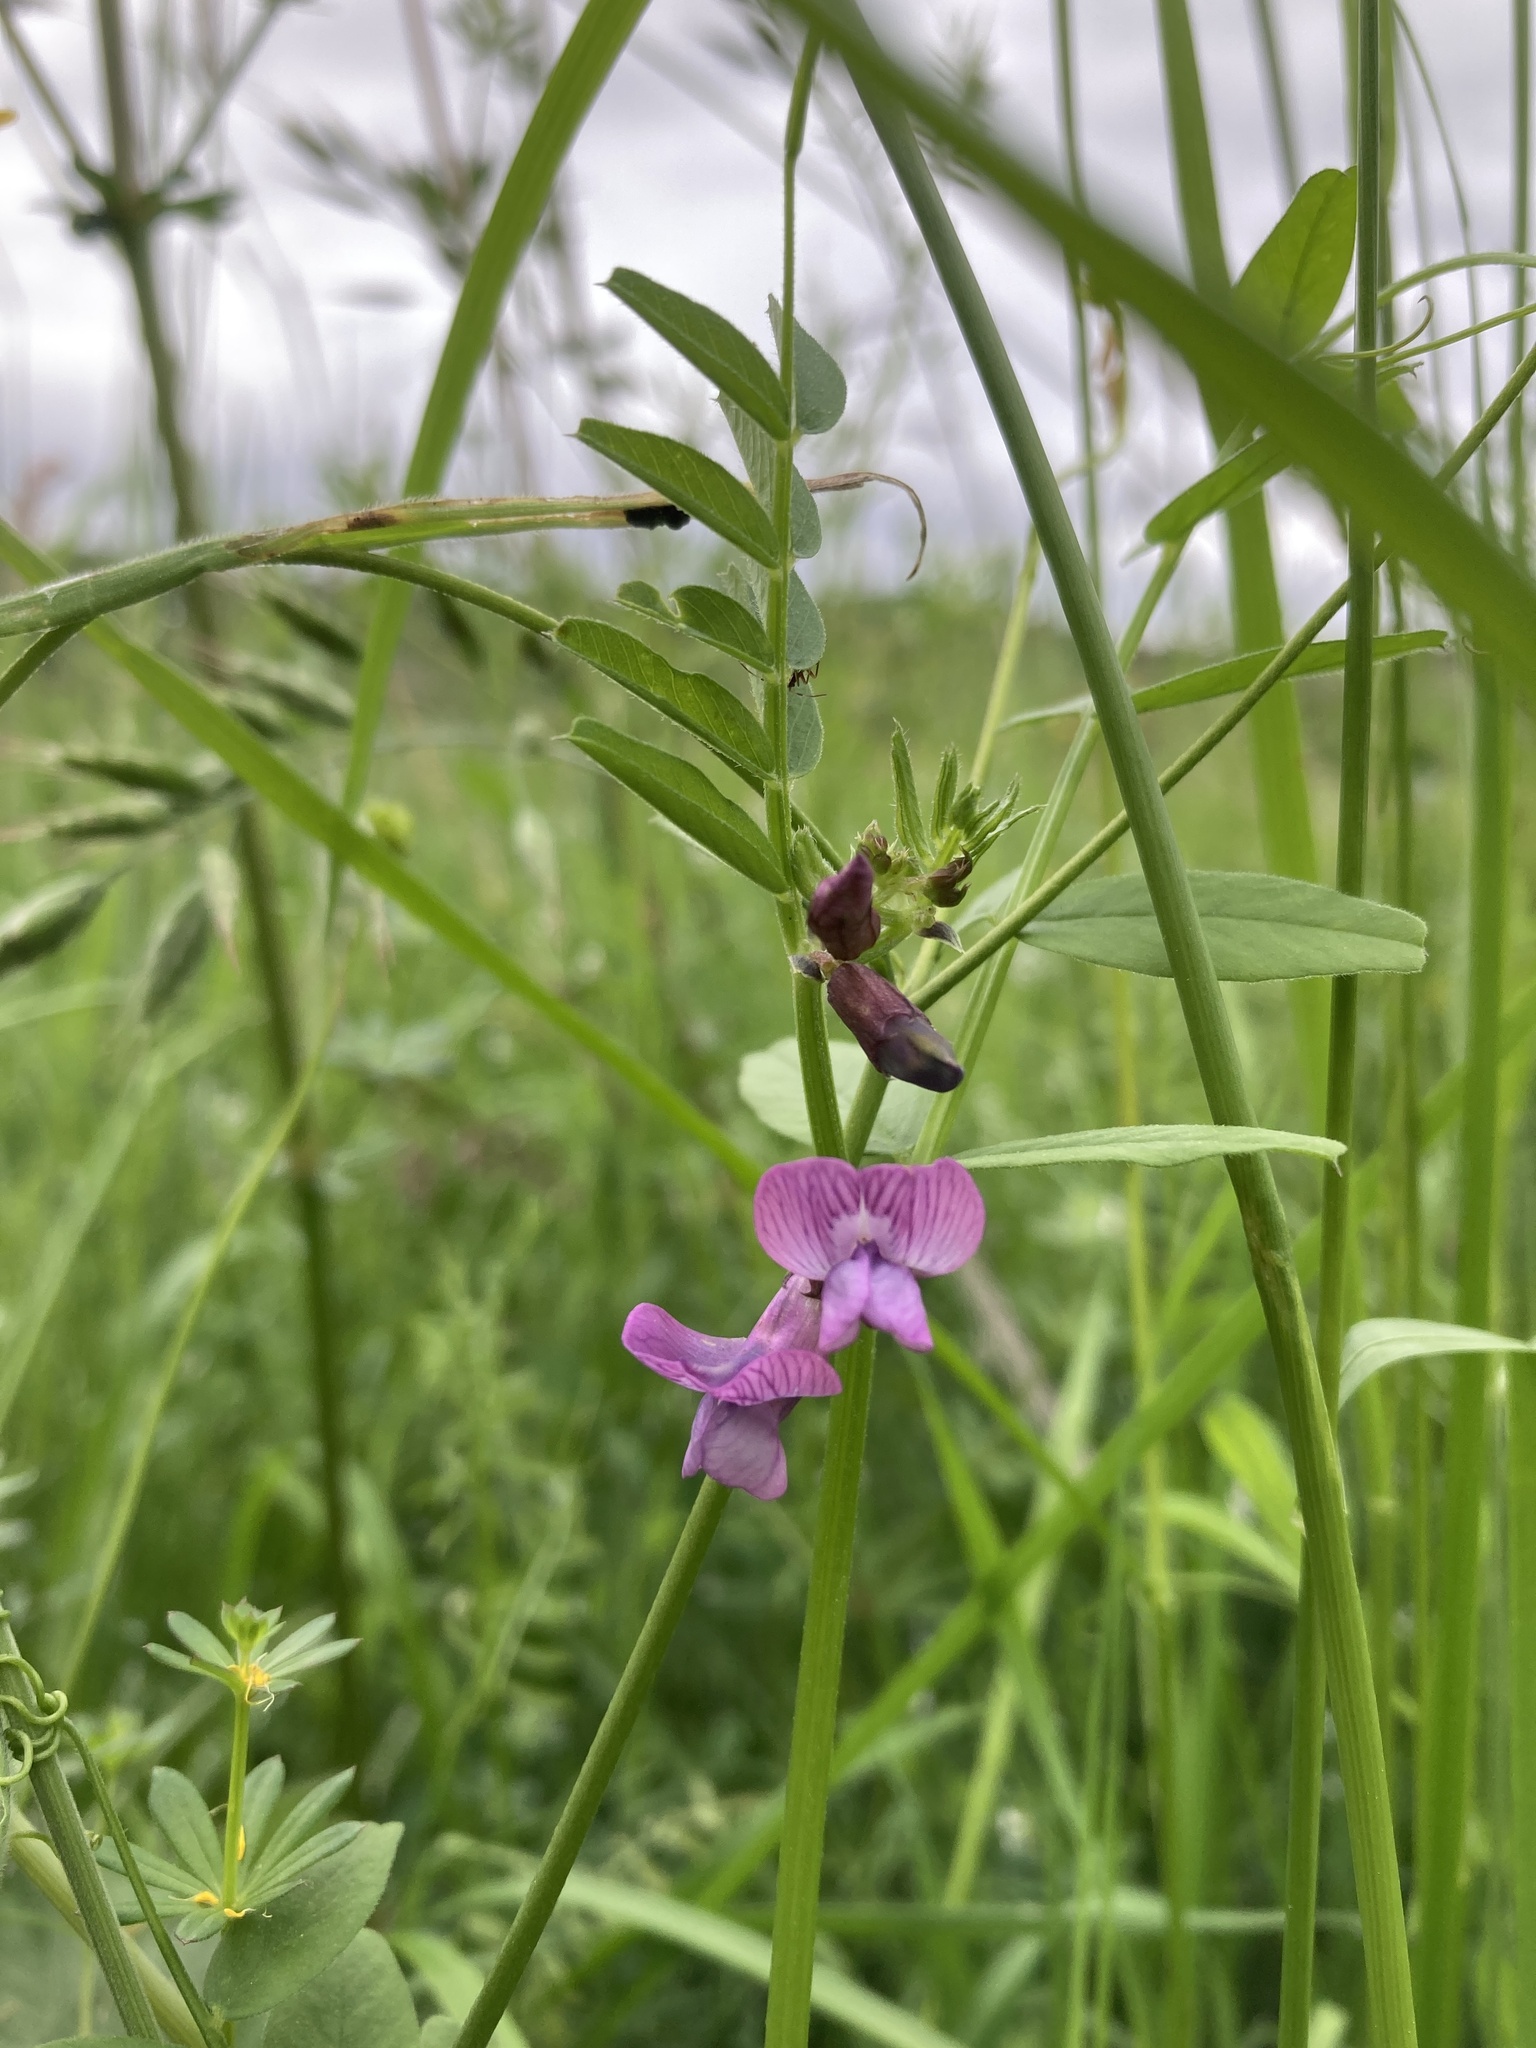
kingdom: Plantae
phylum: Tracheophyta
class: Magnoliopsida
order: Fabales
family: Fabaceae
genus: Vicia
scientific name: Vicia sepium
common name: Bush vetch
